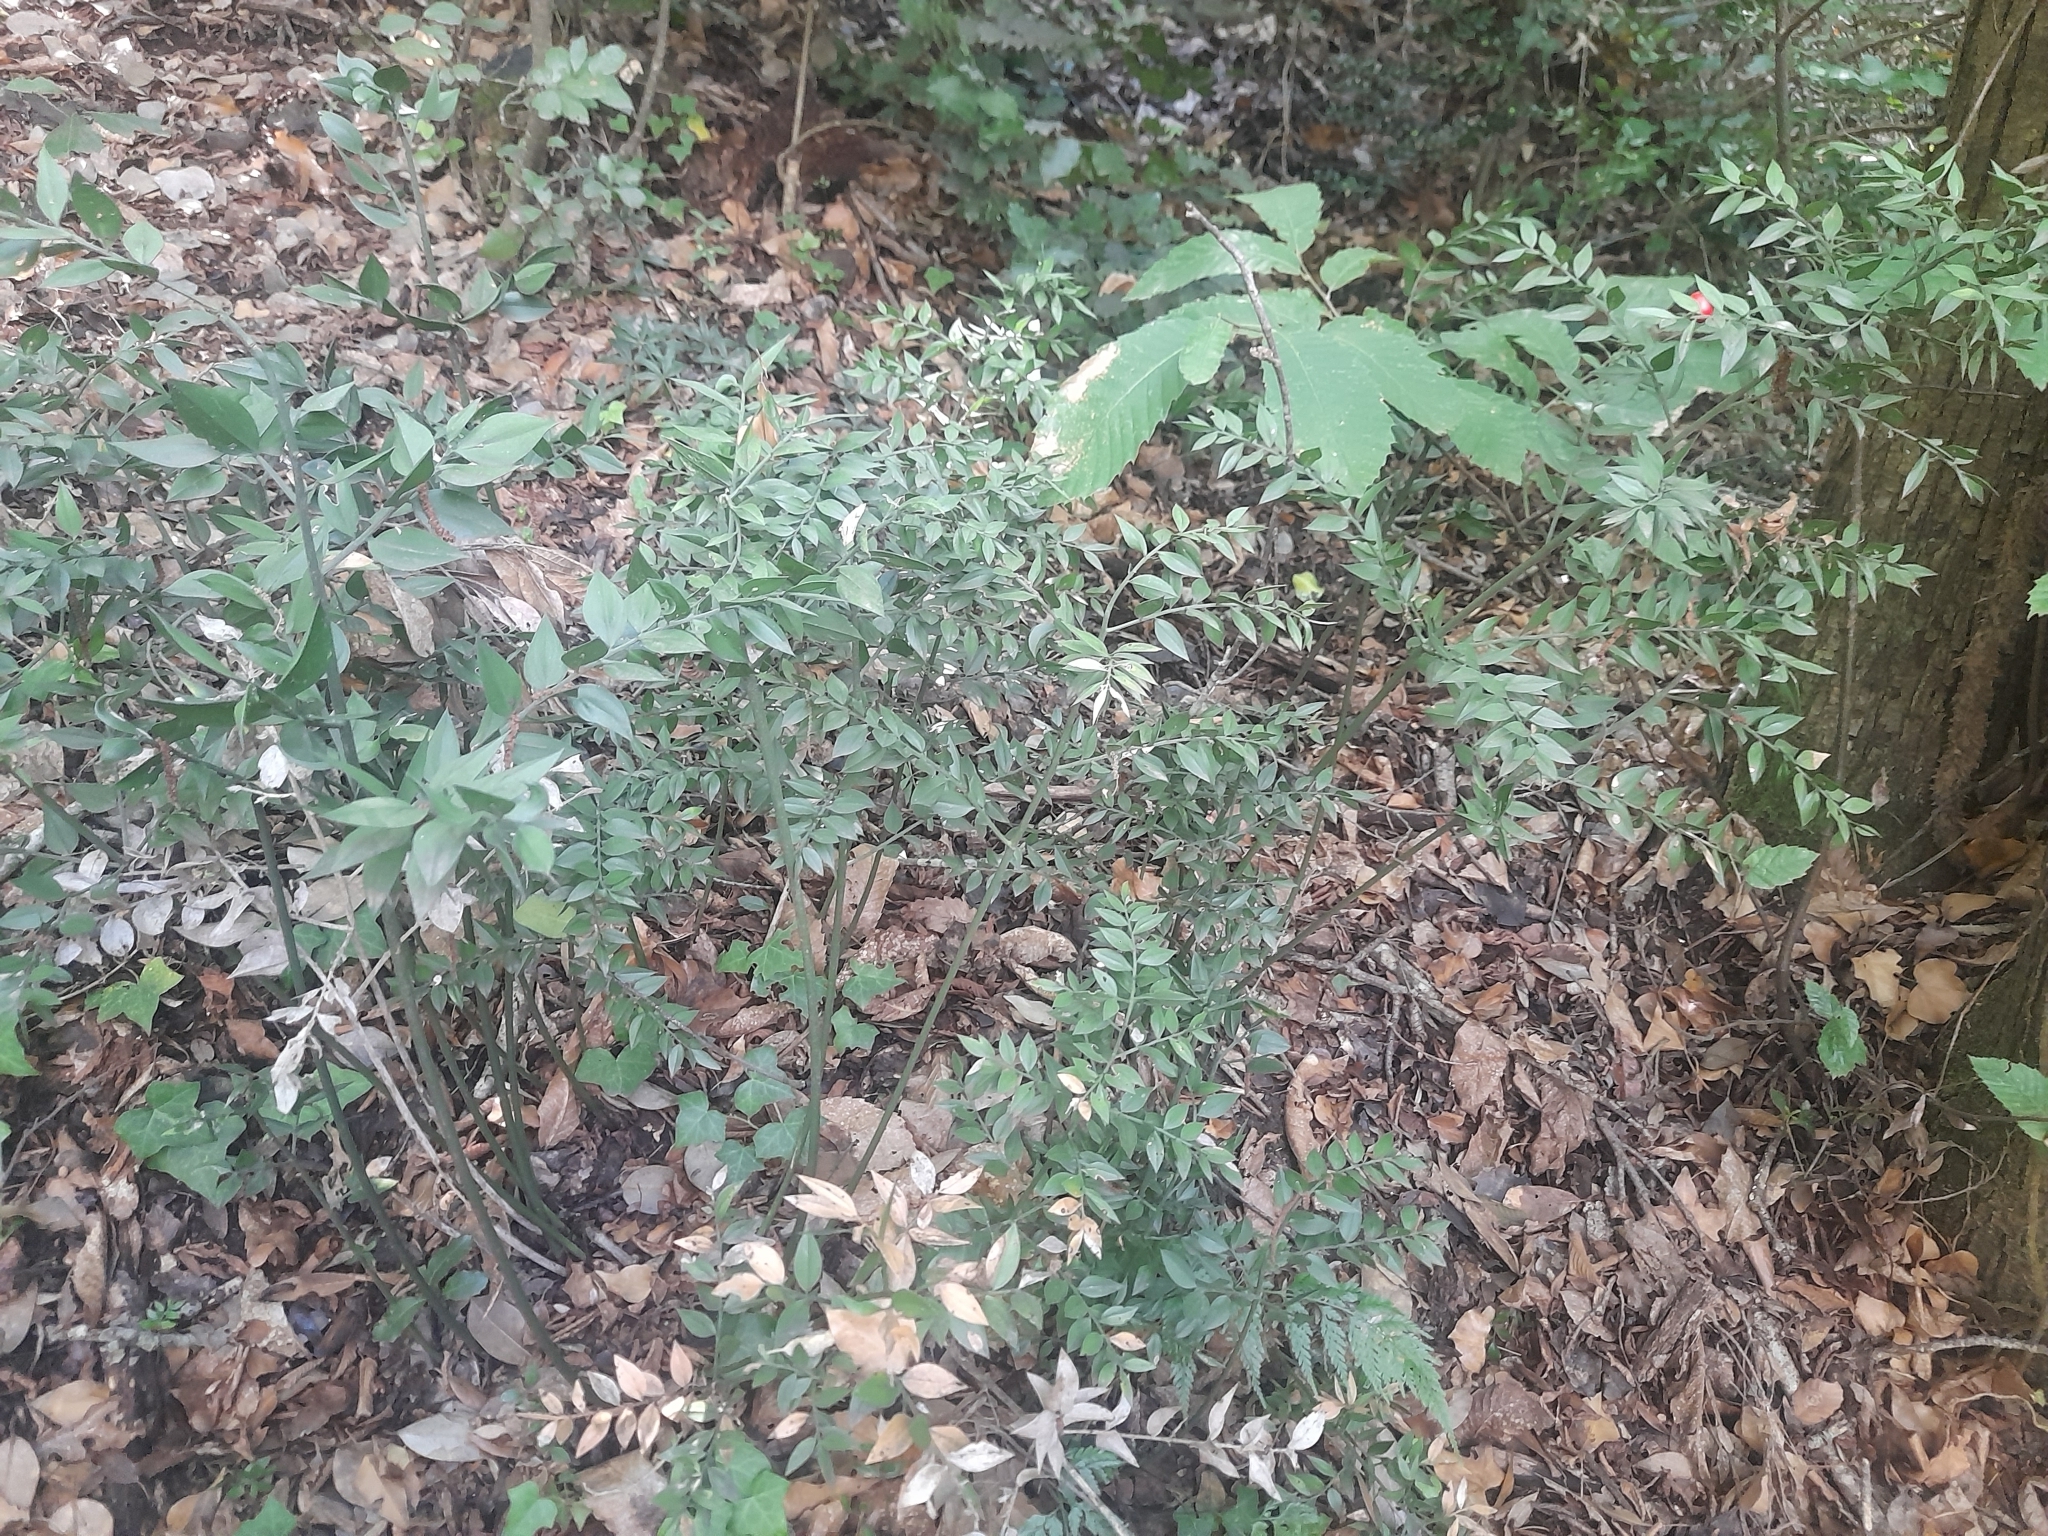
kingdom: Plantae
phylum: Tracheophyta
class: Liliopsida
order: Asparagales
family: Asparagaceae
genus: Ruscus
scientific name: Ruscus aculeatus
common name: Butcher's-broom
